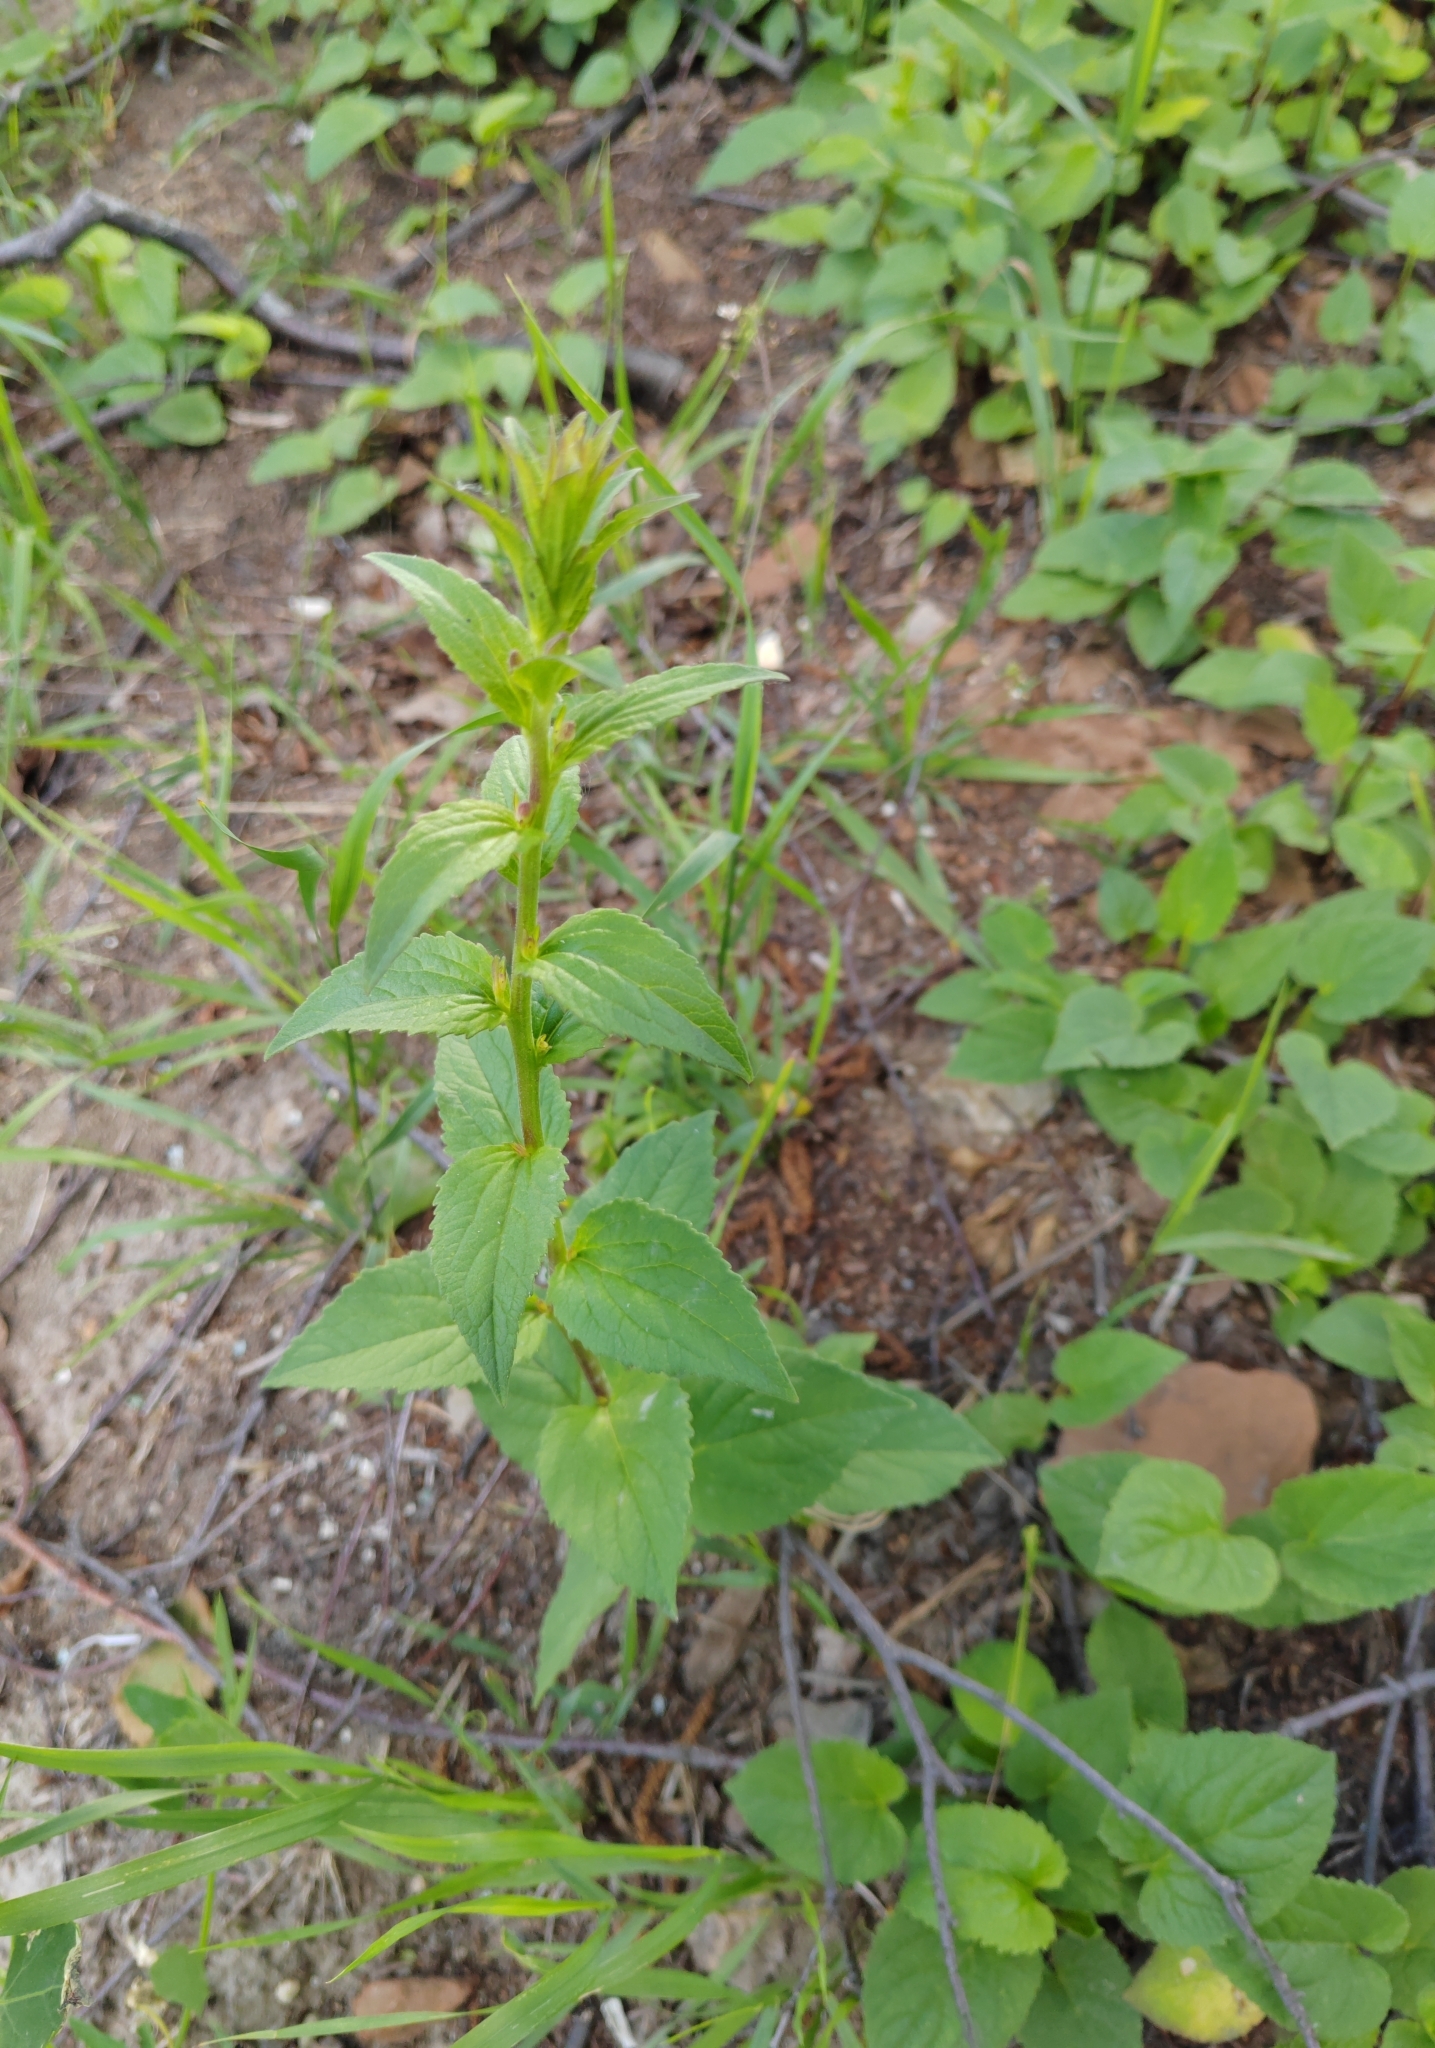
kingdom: Plantae
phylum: Tracheophyta
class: Magnoliopsida
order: Asterales
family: Campanulaceae
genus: Campanula
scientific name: Campanula rapunculoides
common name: Creeping bellflower
